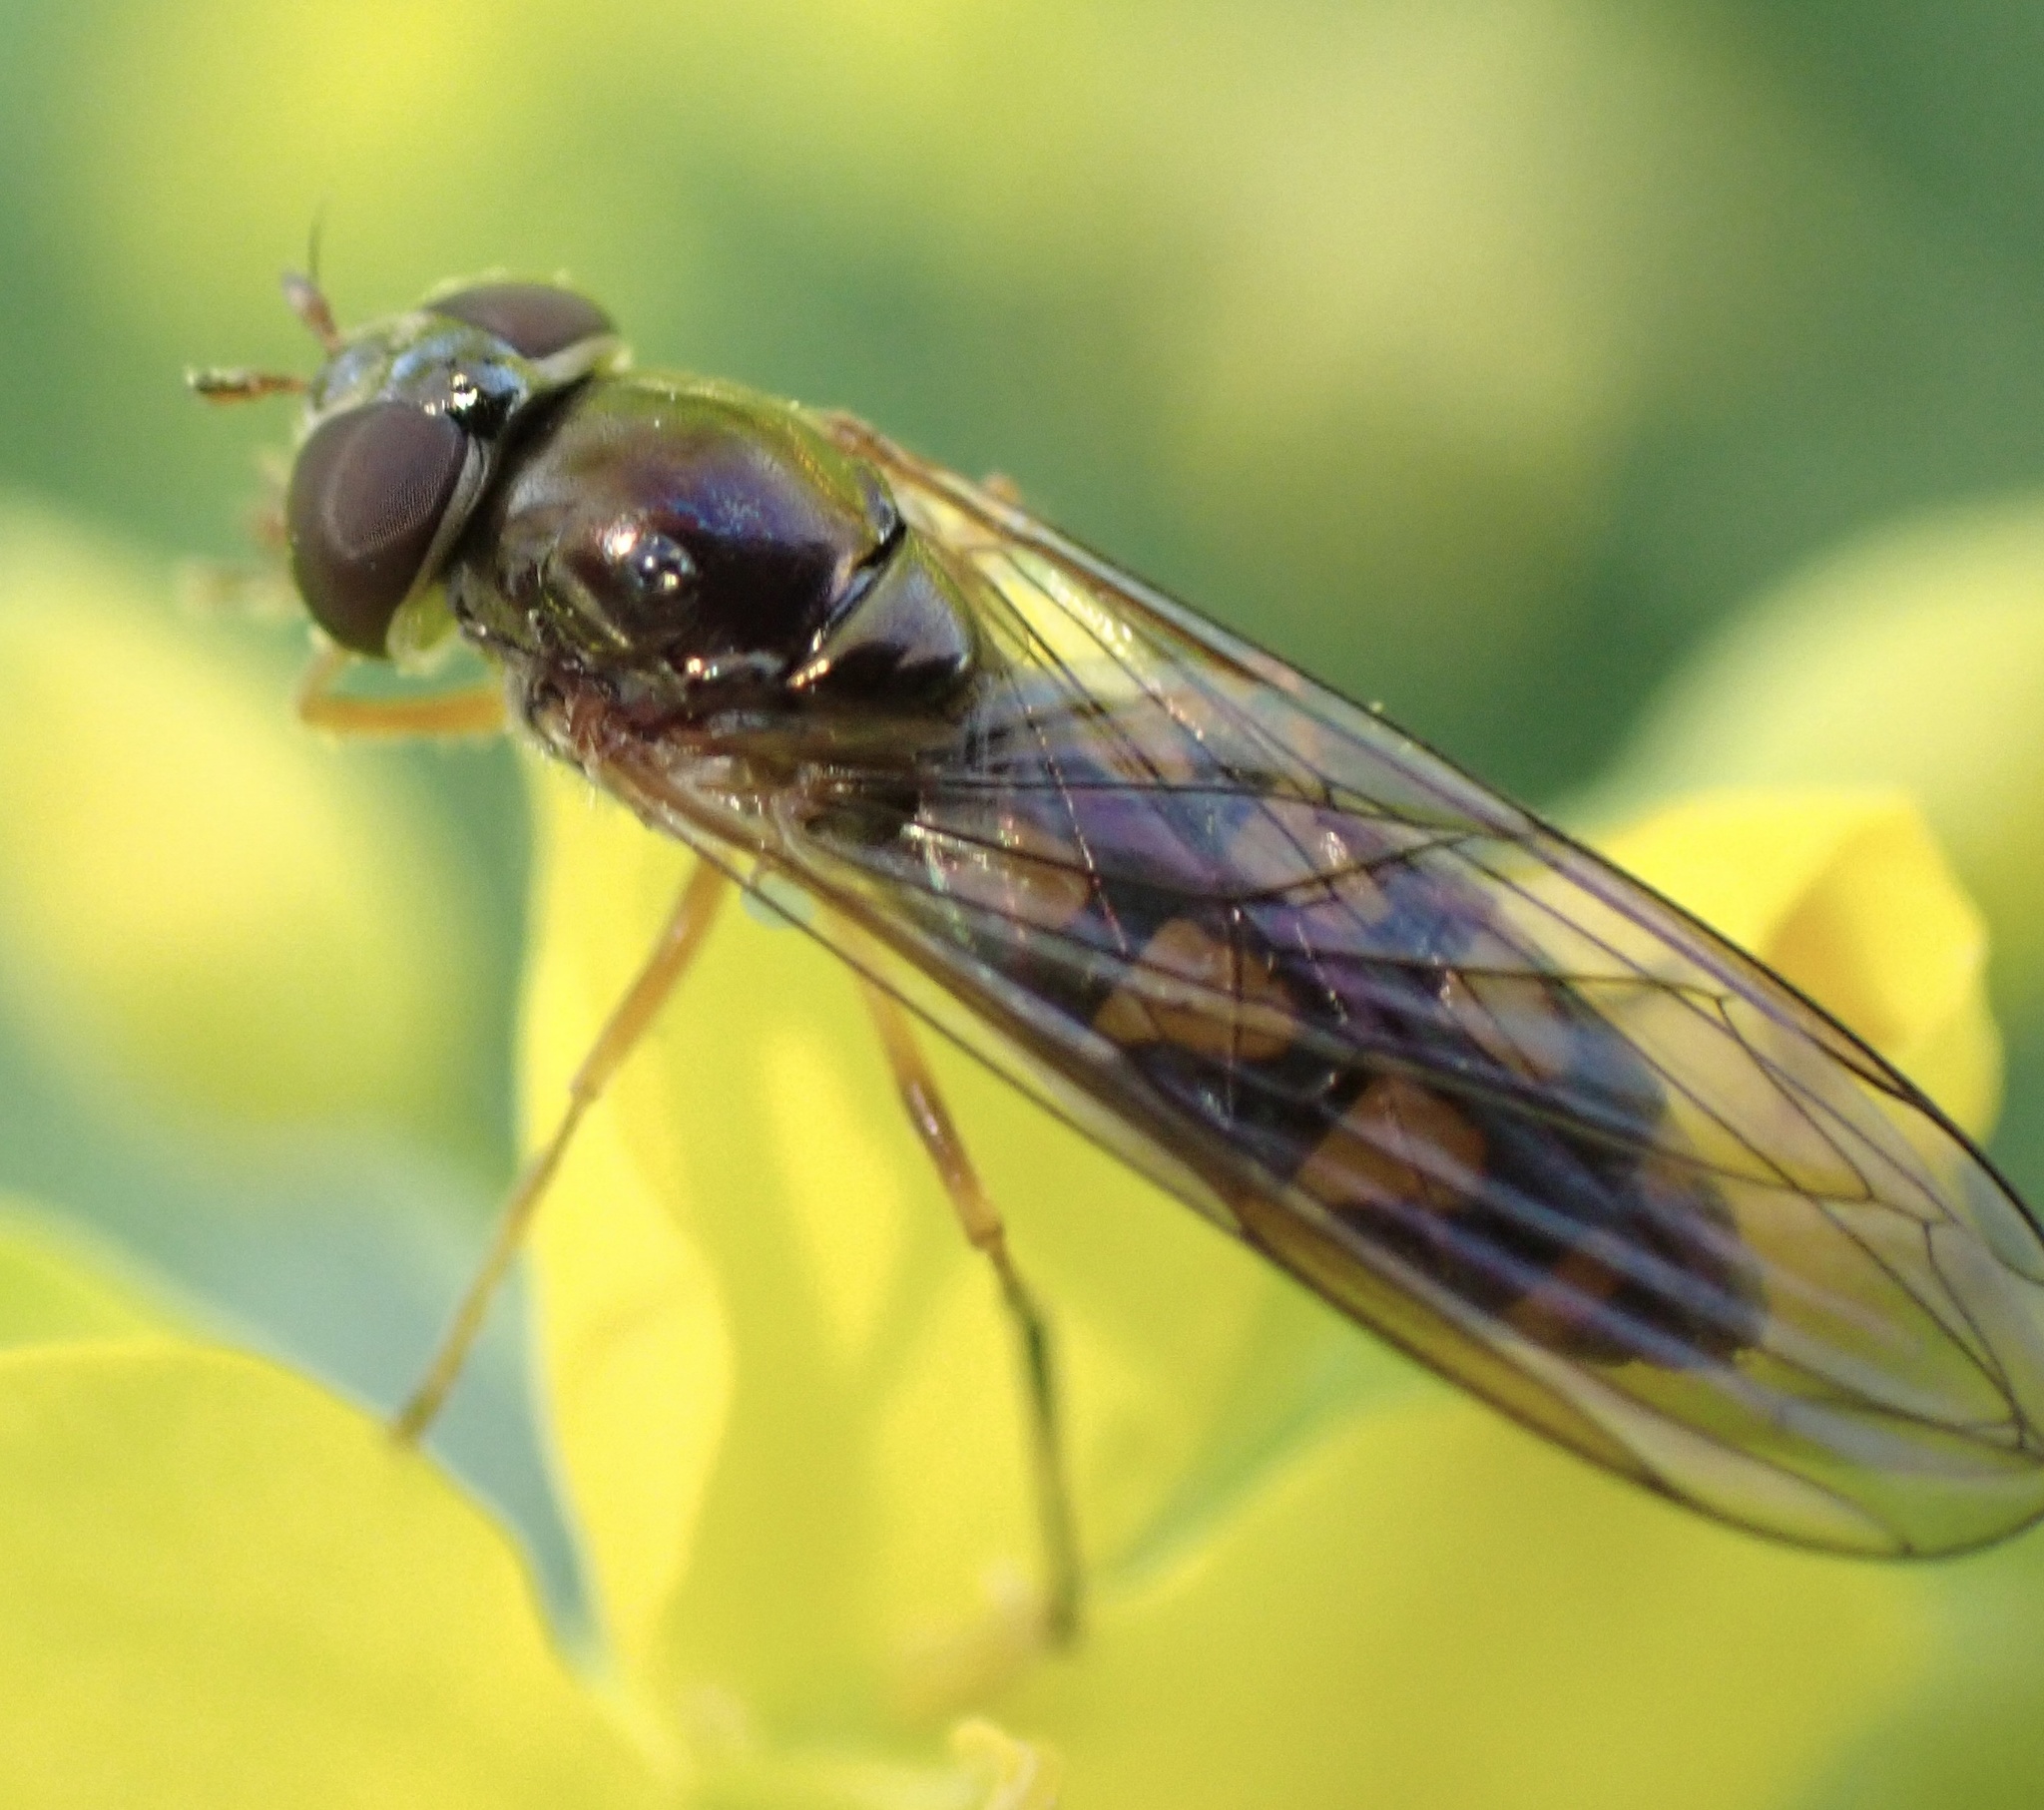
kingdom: Animalia
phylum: Arthropoda
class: Insecta
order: Diptera
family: Syrphidae
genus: Melanostoma
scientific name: Melanostoma scalare
